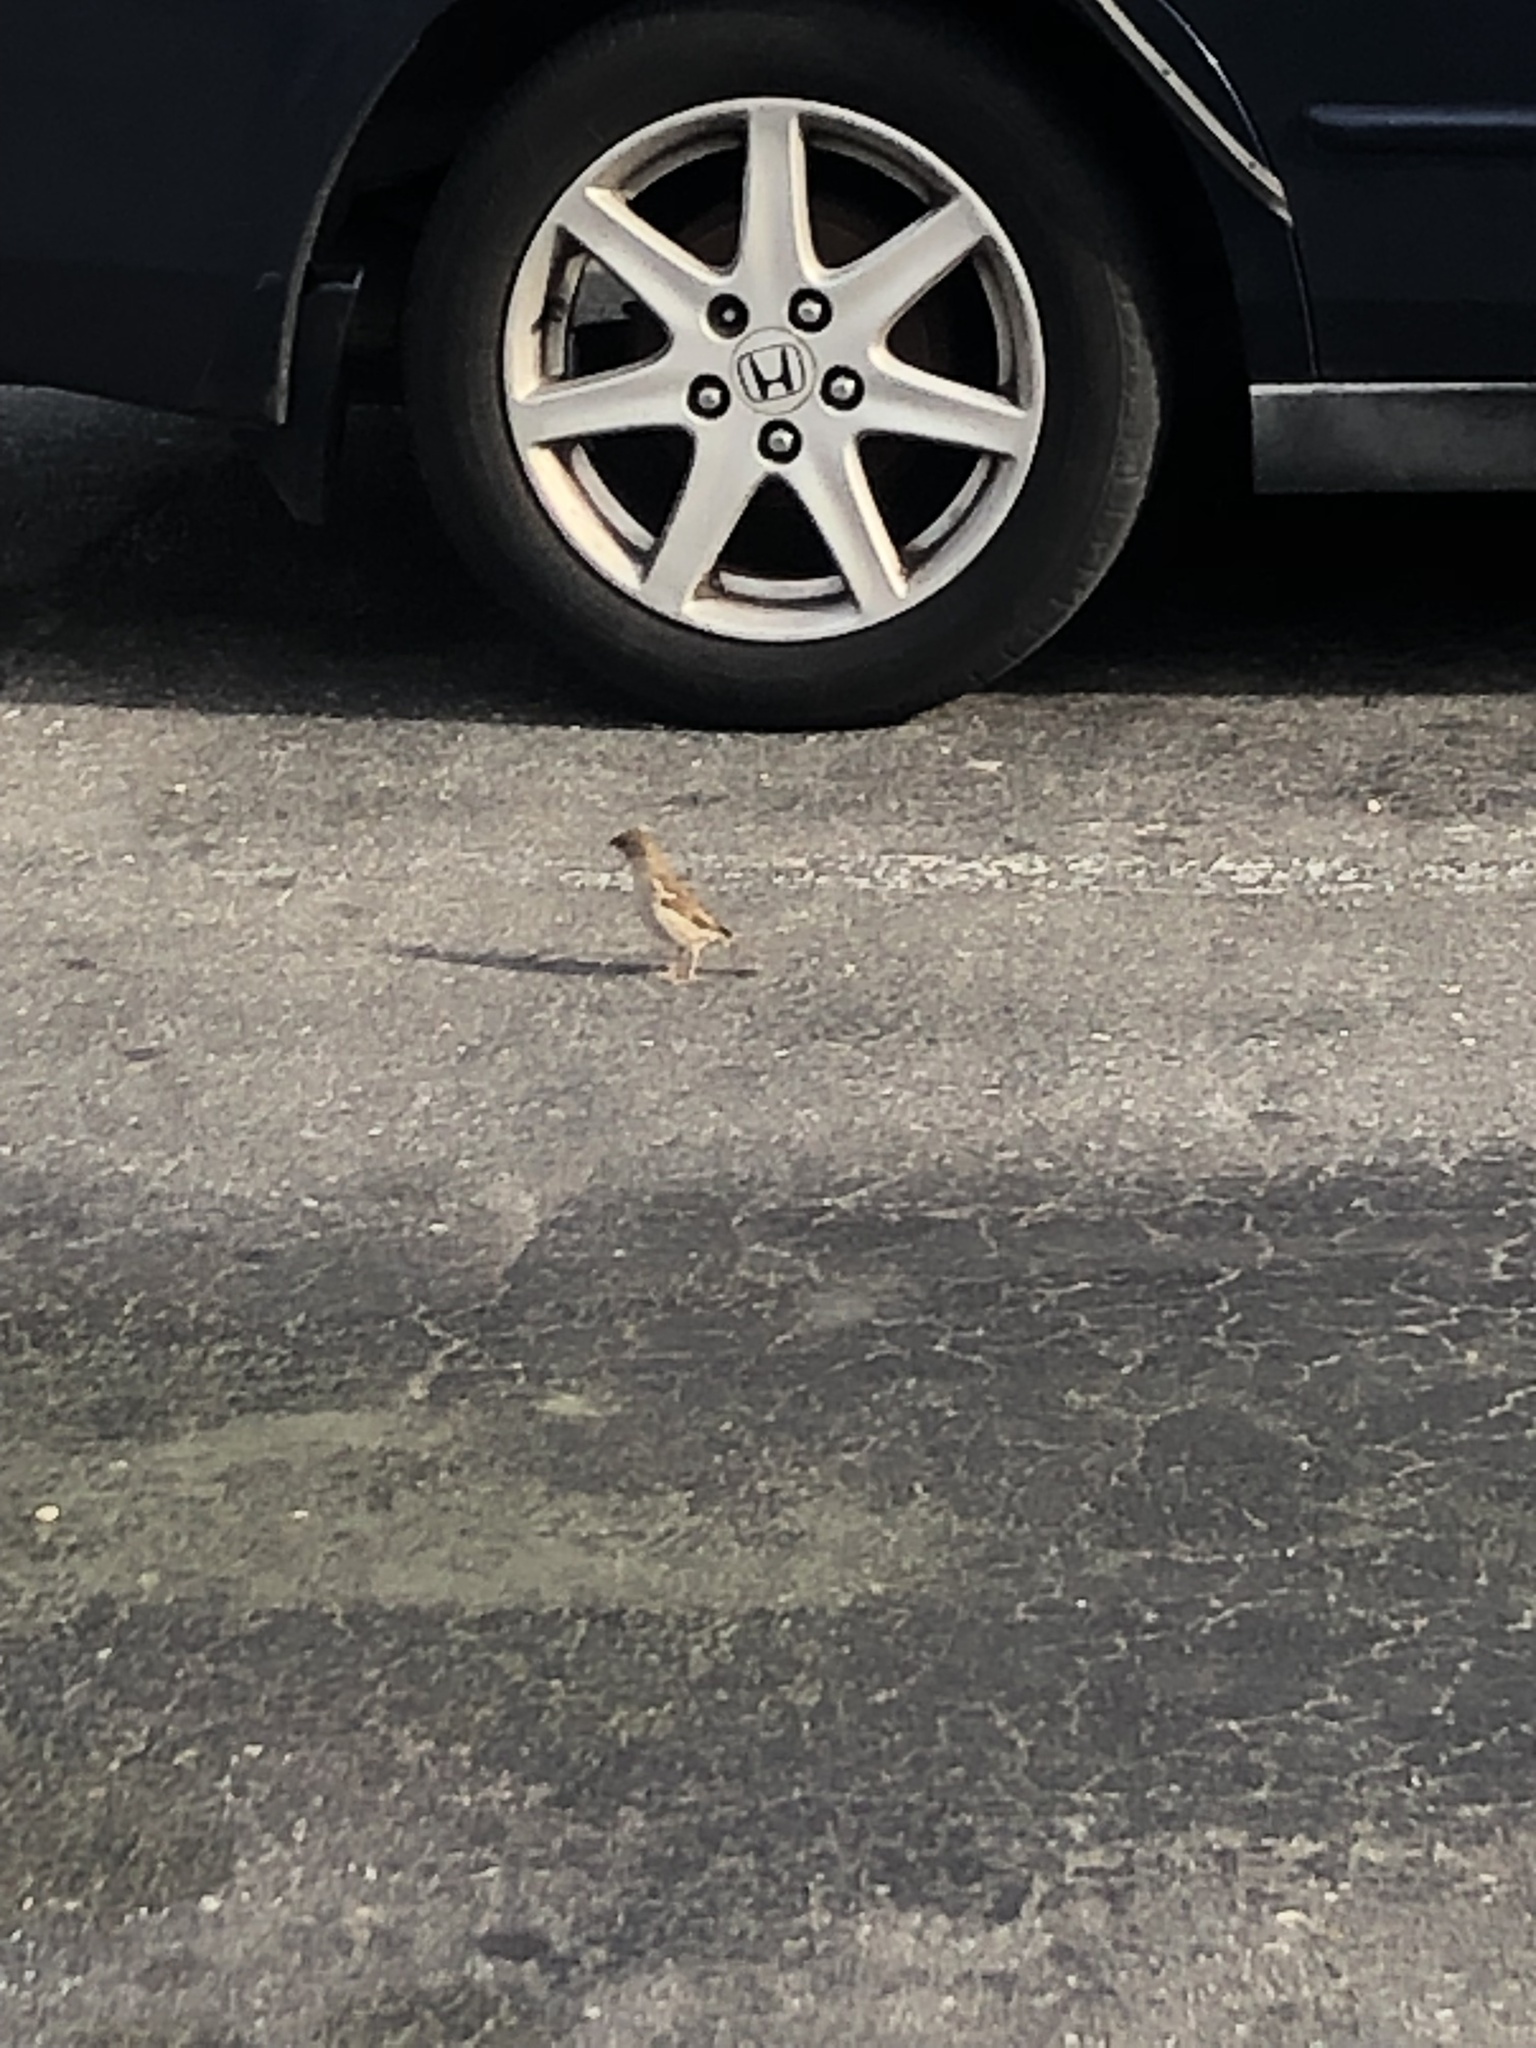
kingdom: Animalia
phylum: Chordata
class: Aves
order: Passeriformes
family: Passeridae
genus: Passer
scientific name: Passer domesticus
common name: House sparrow
